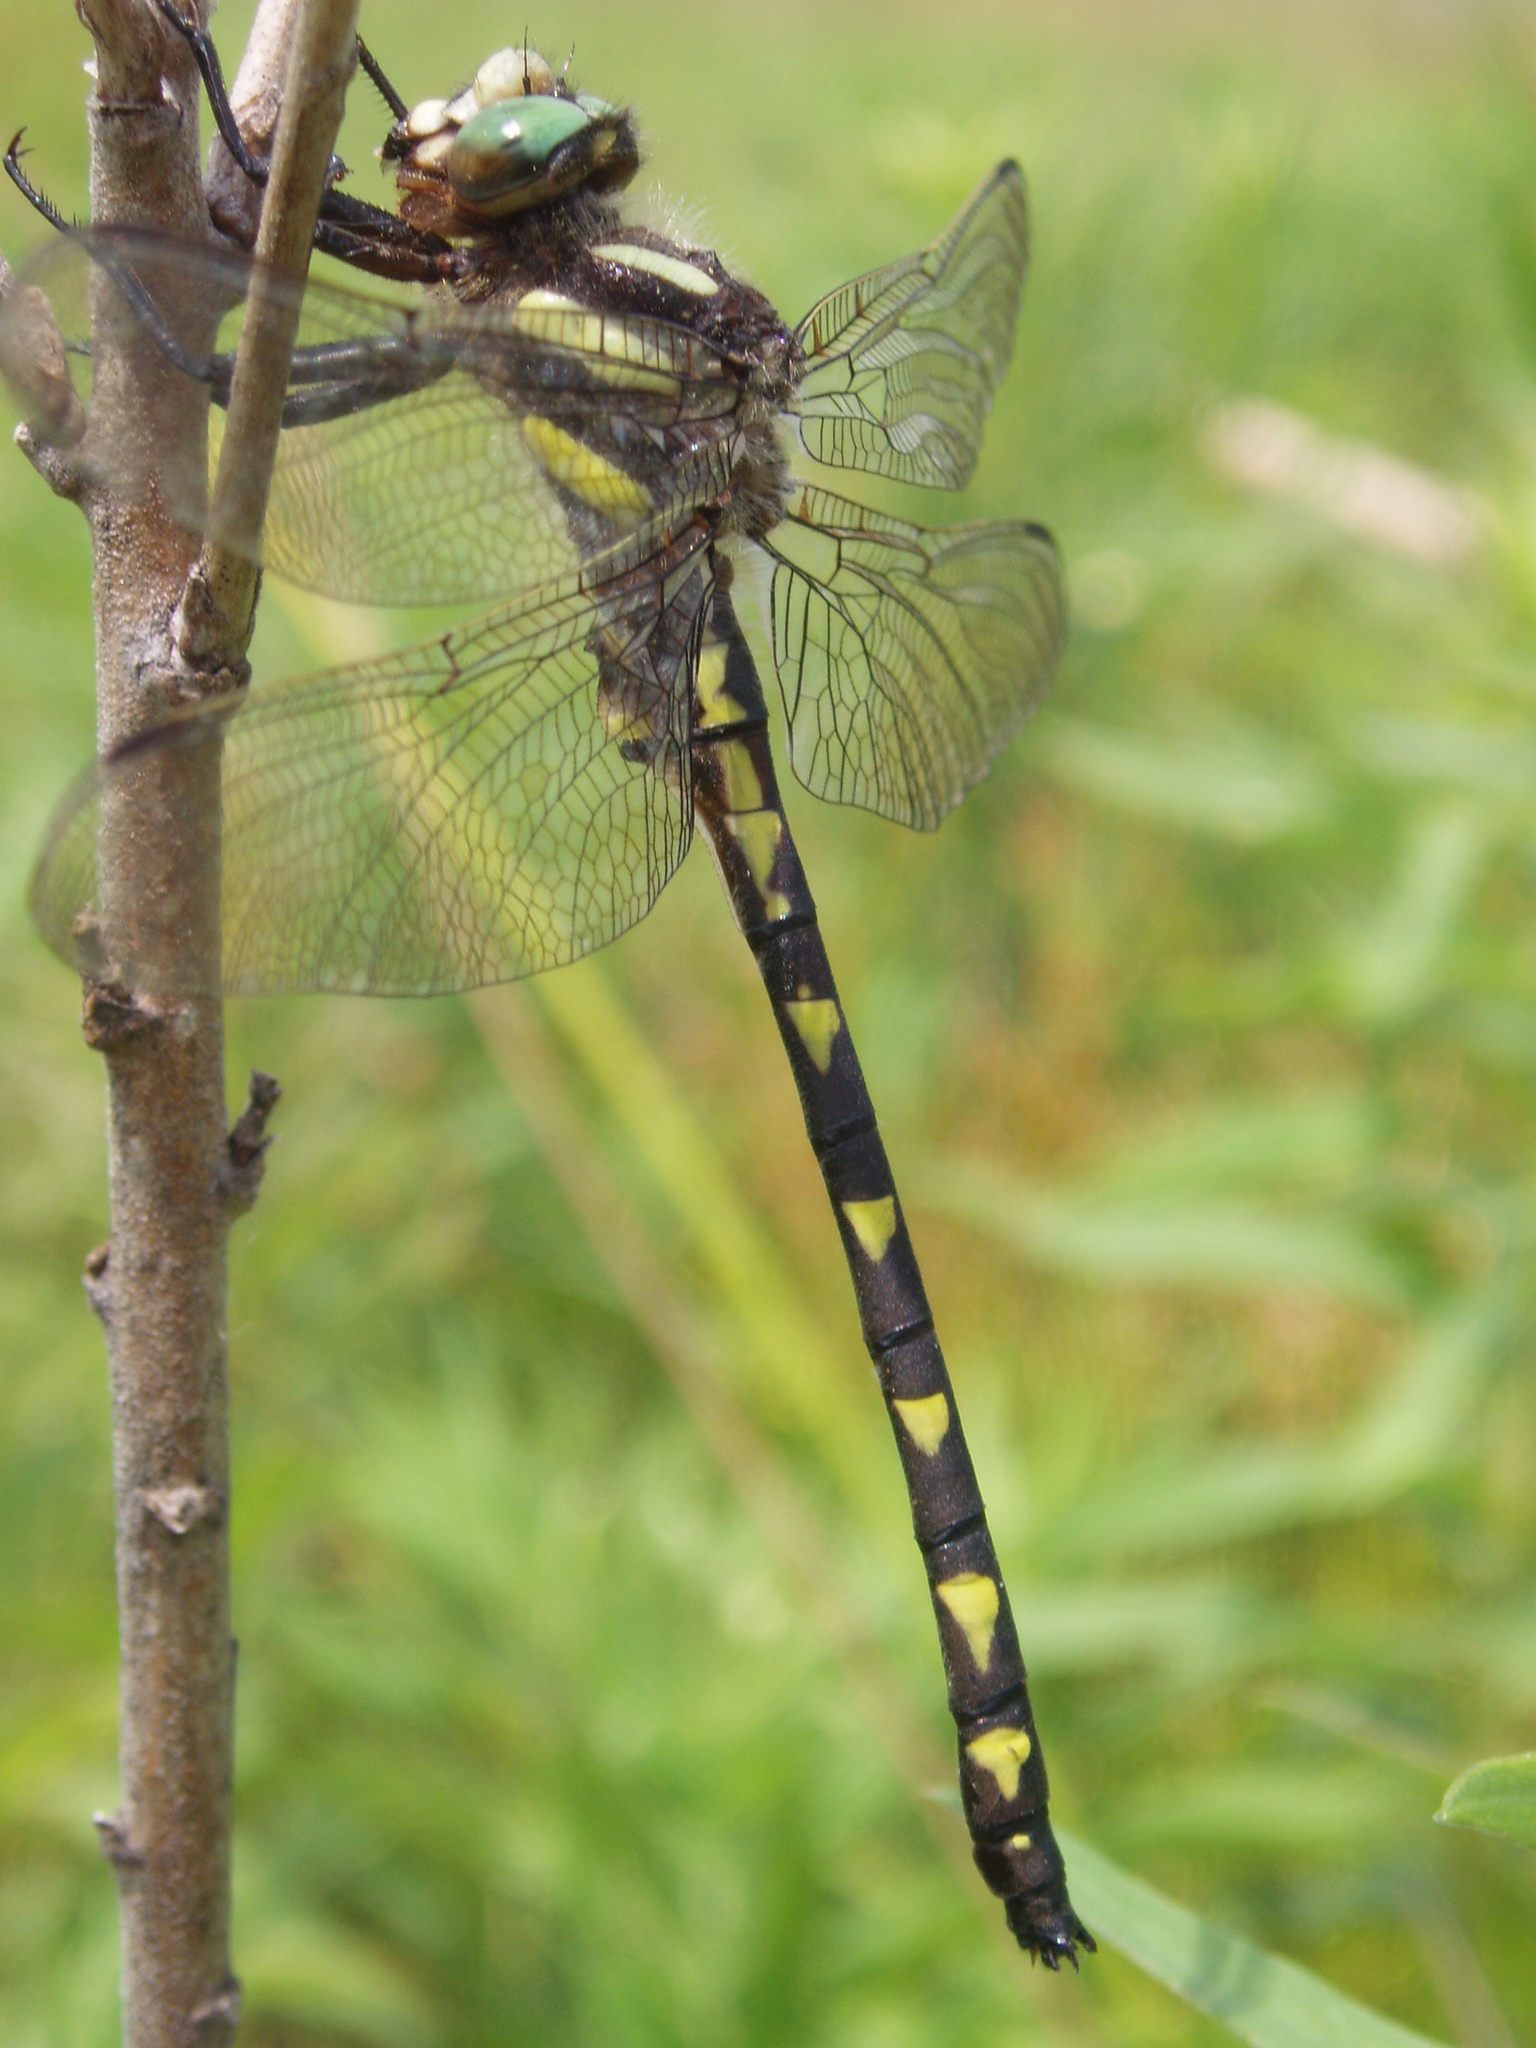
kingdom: Animalia
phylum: Arthropoda
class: Insecta
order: Odonata
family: Cordulegastridae
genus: Cordulegaster
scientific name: Cordulegaster diastatops
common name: Delta-spotted spiketail
